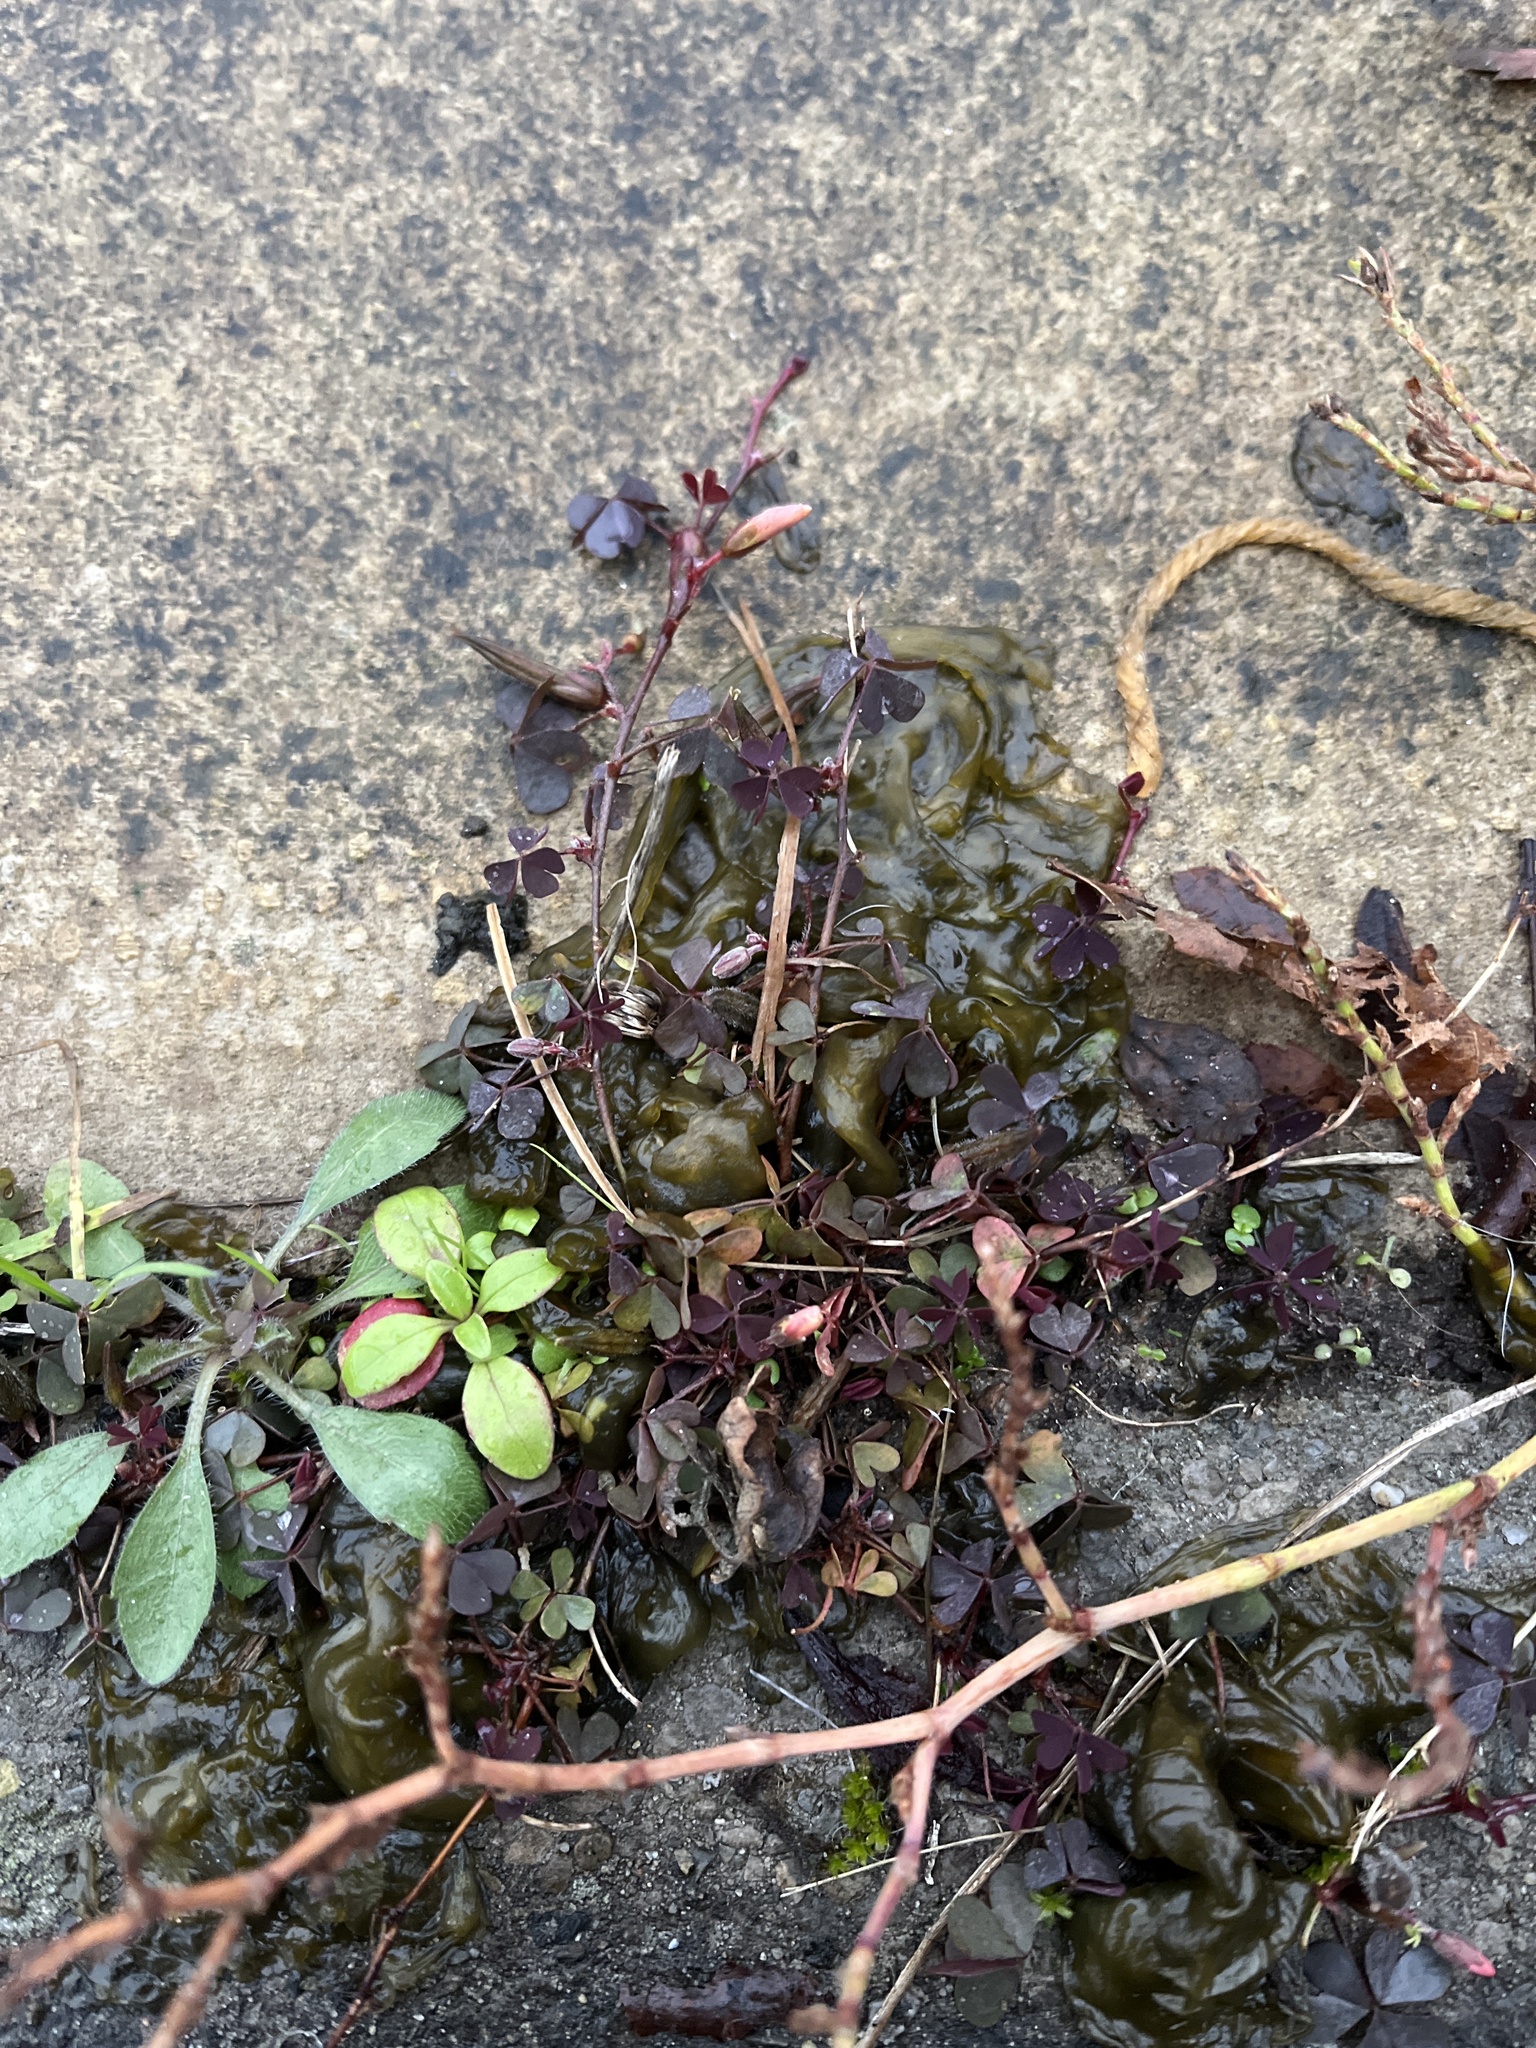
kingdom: Plantae
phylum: Tracheophyta
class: Magnoliopsida
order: Oxalidales
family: Oxalidaceae
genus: Oxalis
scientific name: Oxalis corniculata
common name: Procumbent yellow-sorrel
